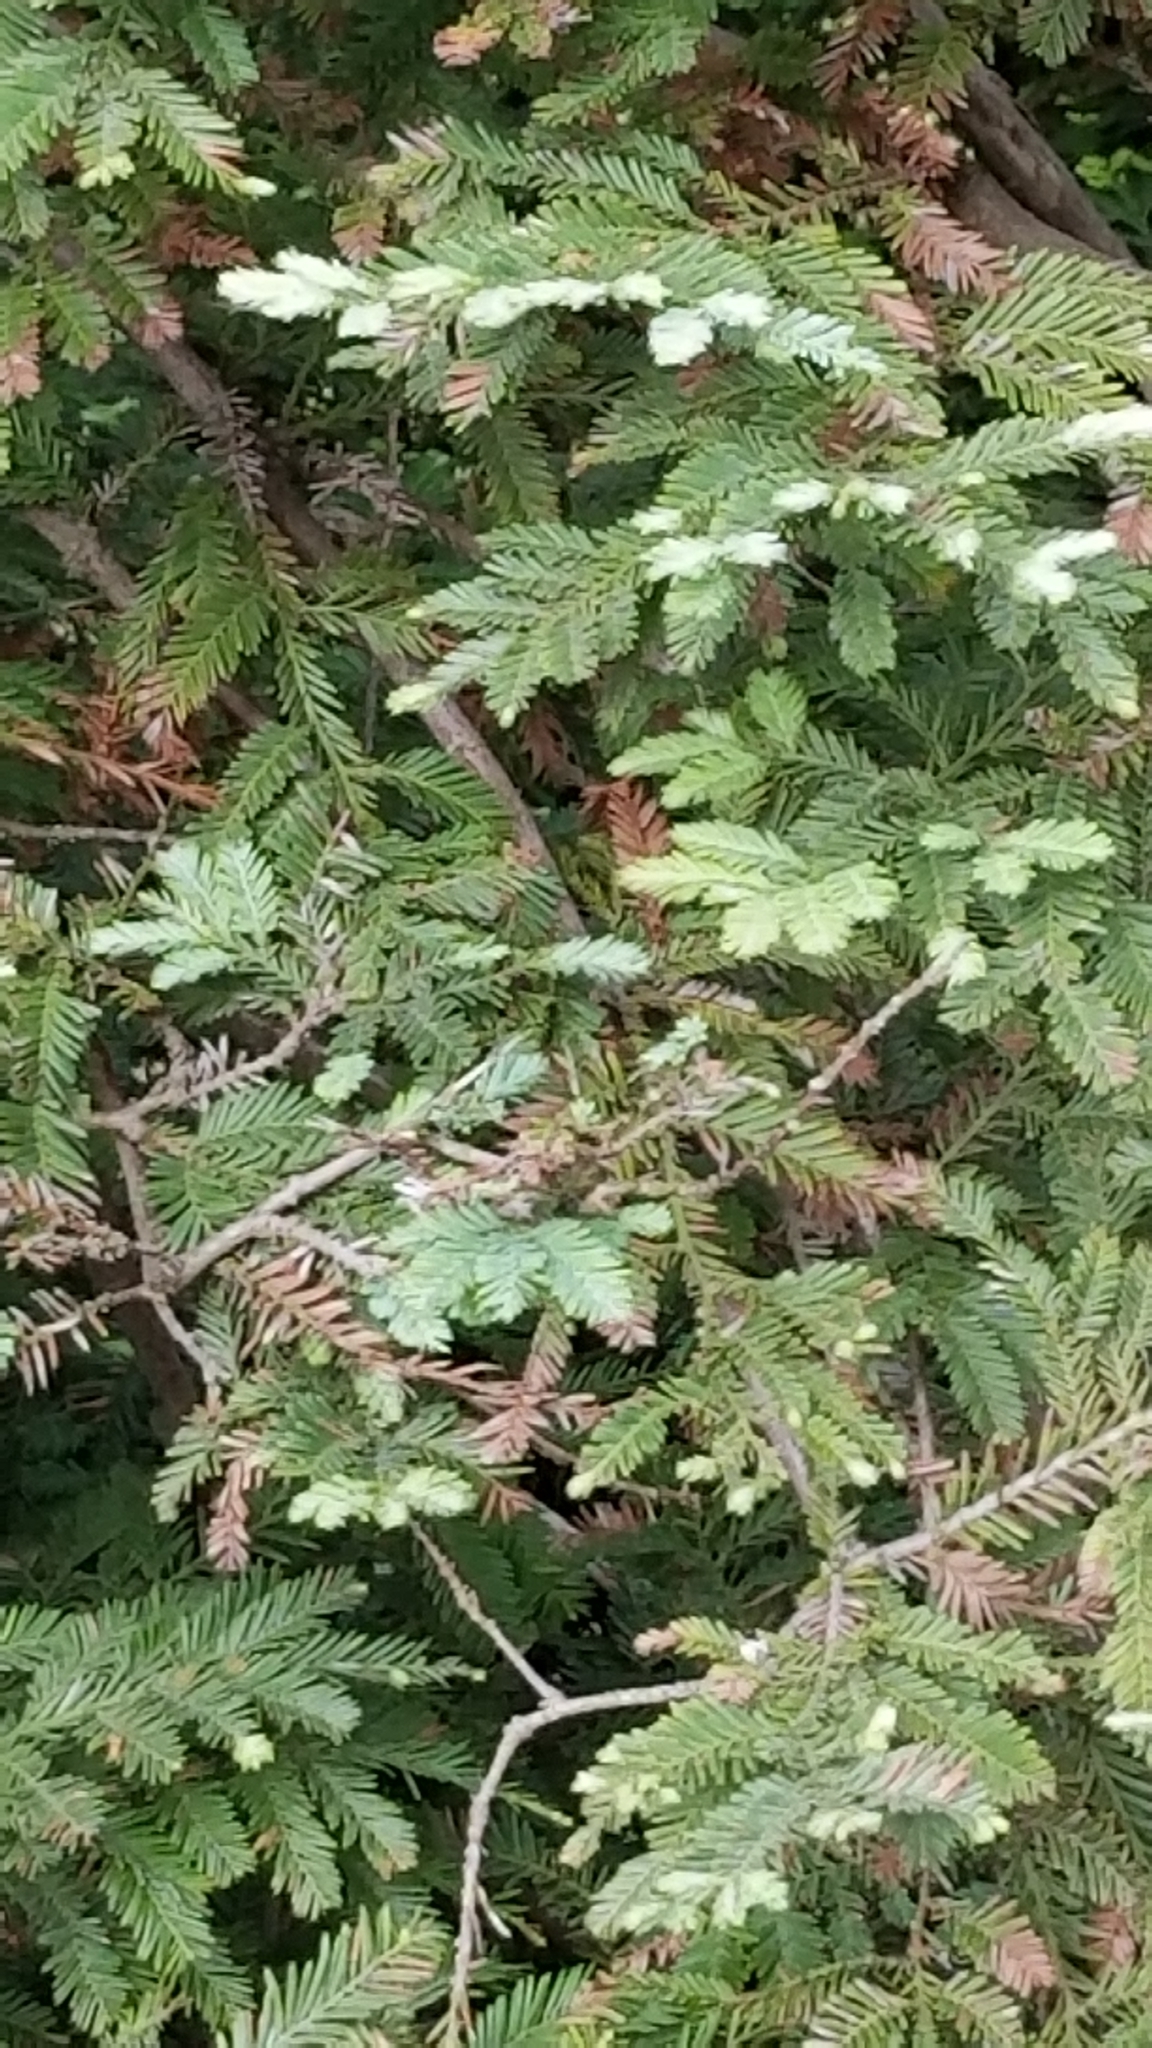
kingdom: Plantae
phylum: Tracheophyta
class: Pinopsida
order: Pinales
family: Cupressaceae
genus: Sequoia
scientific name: Sequoia sempervirens
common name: Coast redwood
